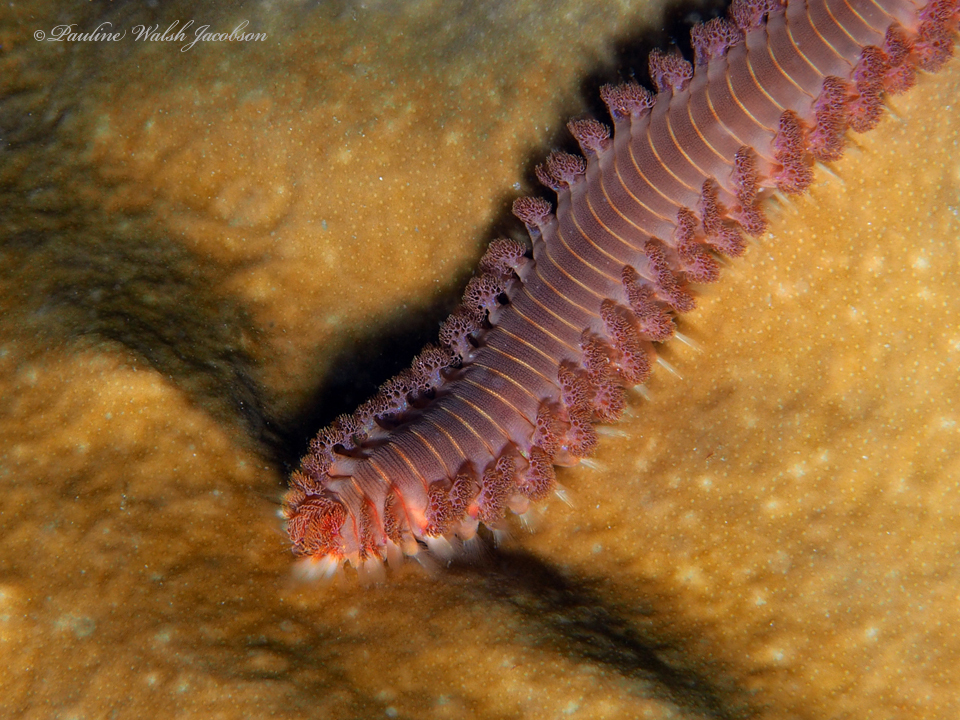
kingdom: Animalia
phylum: Annelida
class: Polychaeta
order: Amphinomida
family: Amphinomidae
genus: Hermodice
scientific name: Hermodice carunculata
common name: Bearded fireworm
